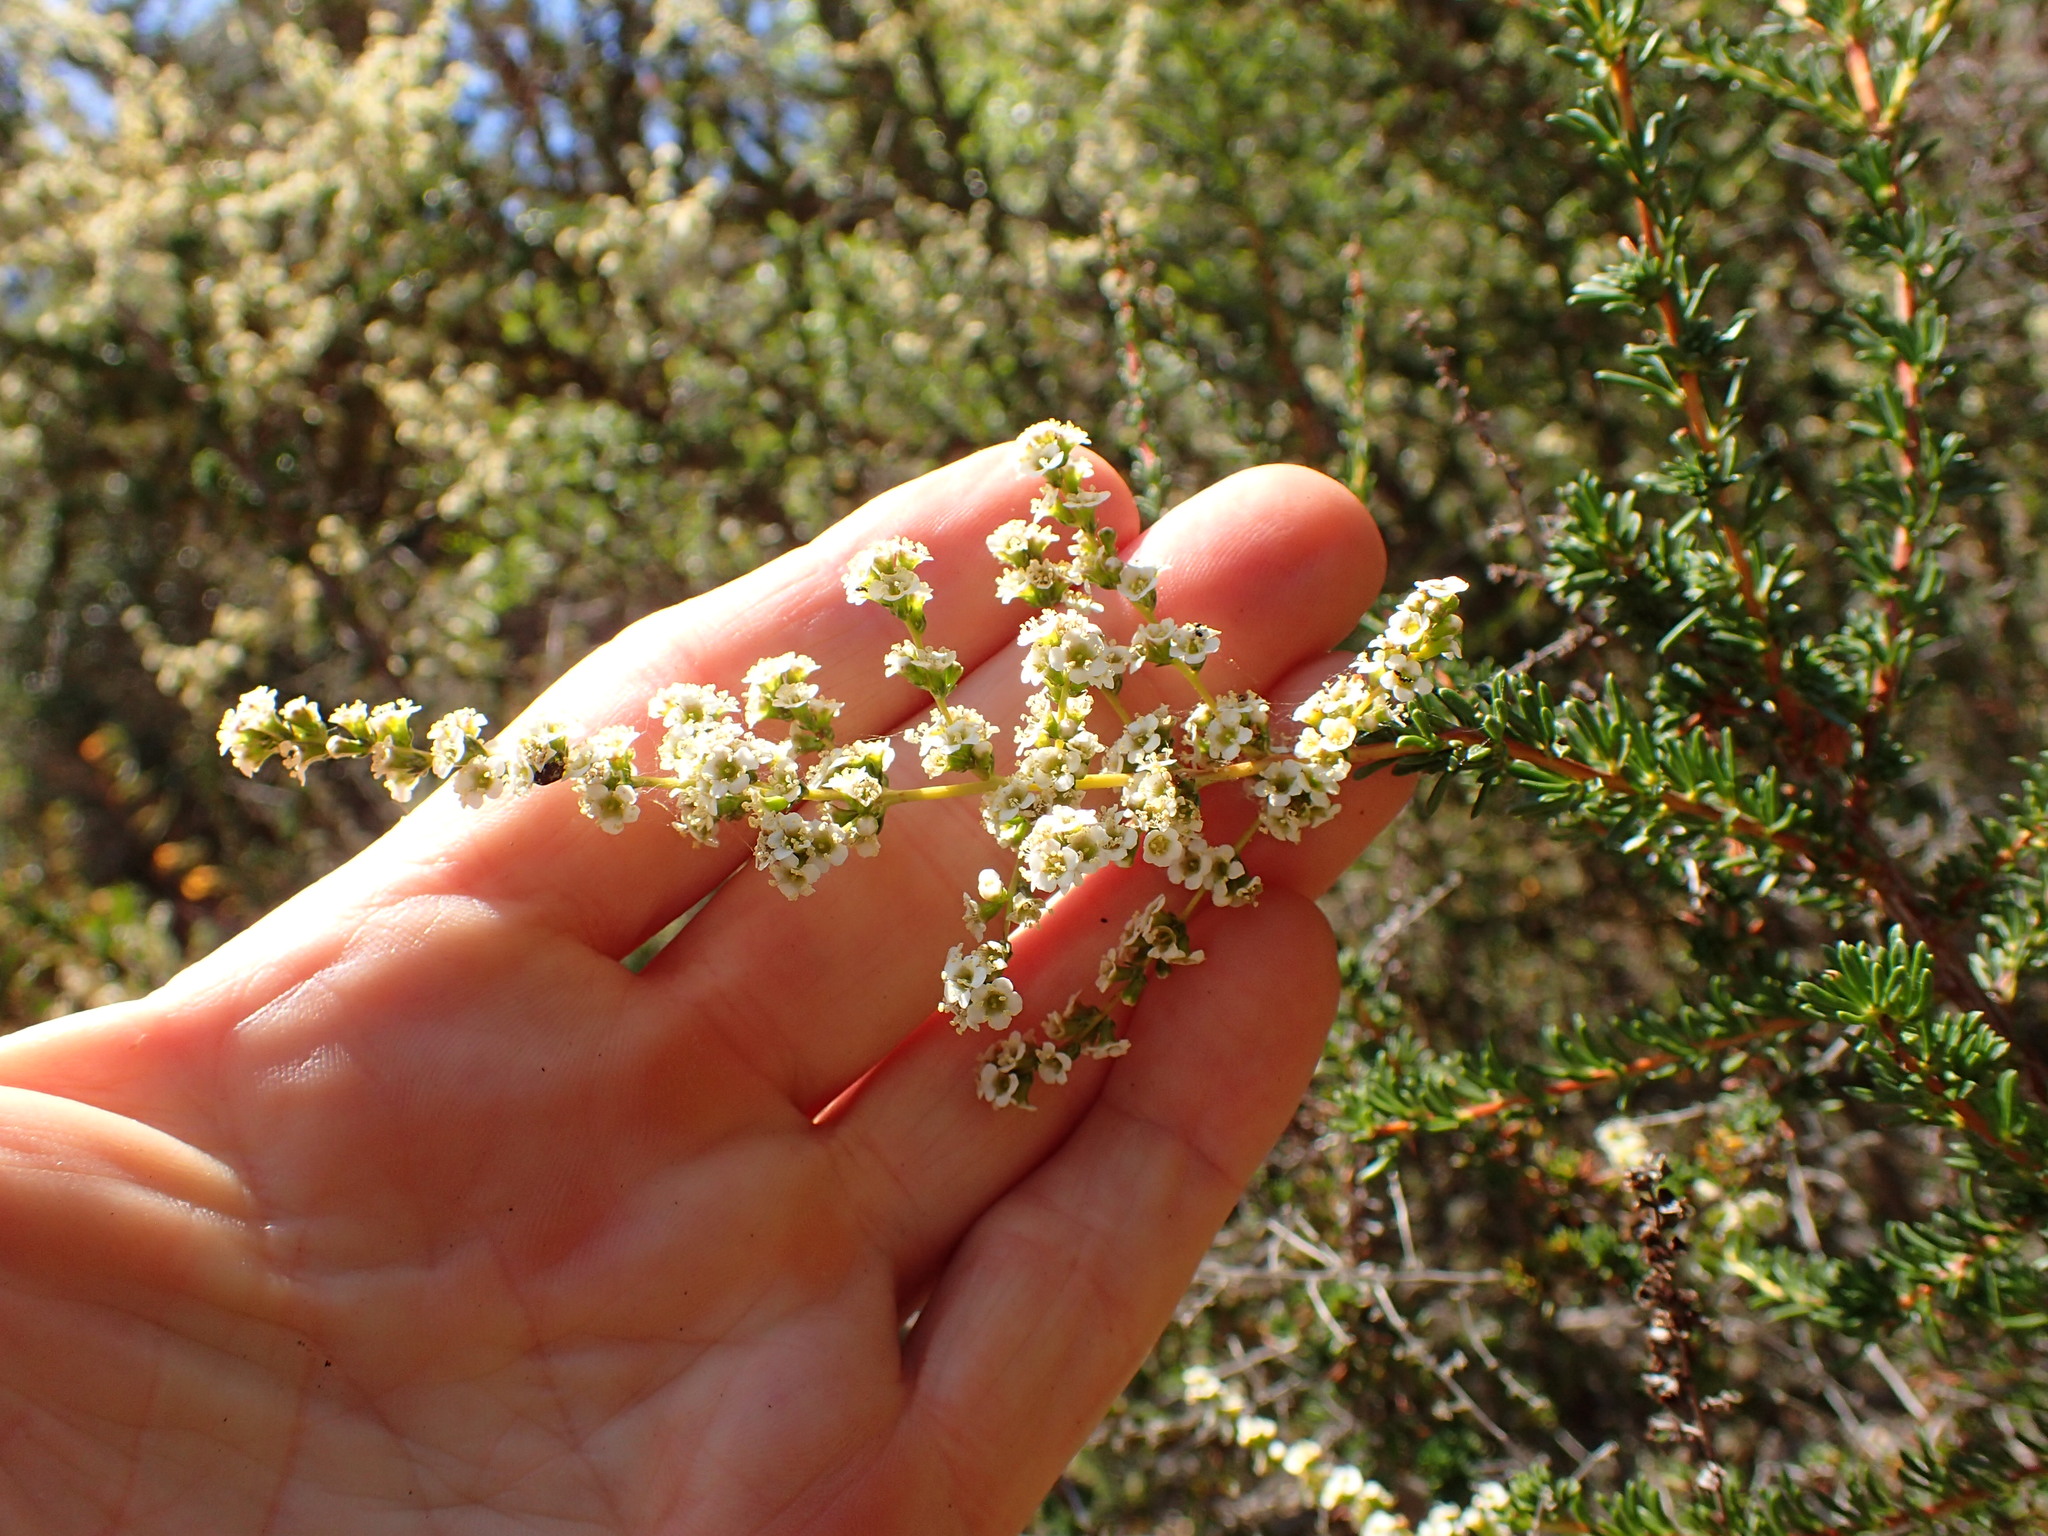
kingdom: Plantae
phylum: Tracheophyta
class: Magnoliopsida
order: Rosales
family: Rosaceae
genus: Adenostoma
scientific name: Adenostoma fasciculatum
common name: Chamise
